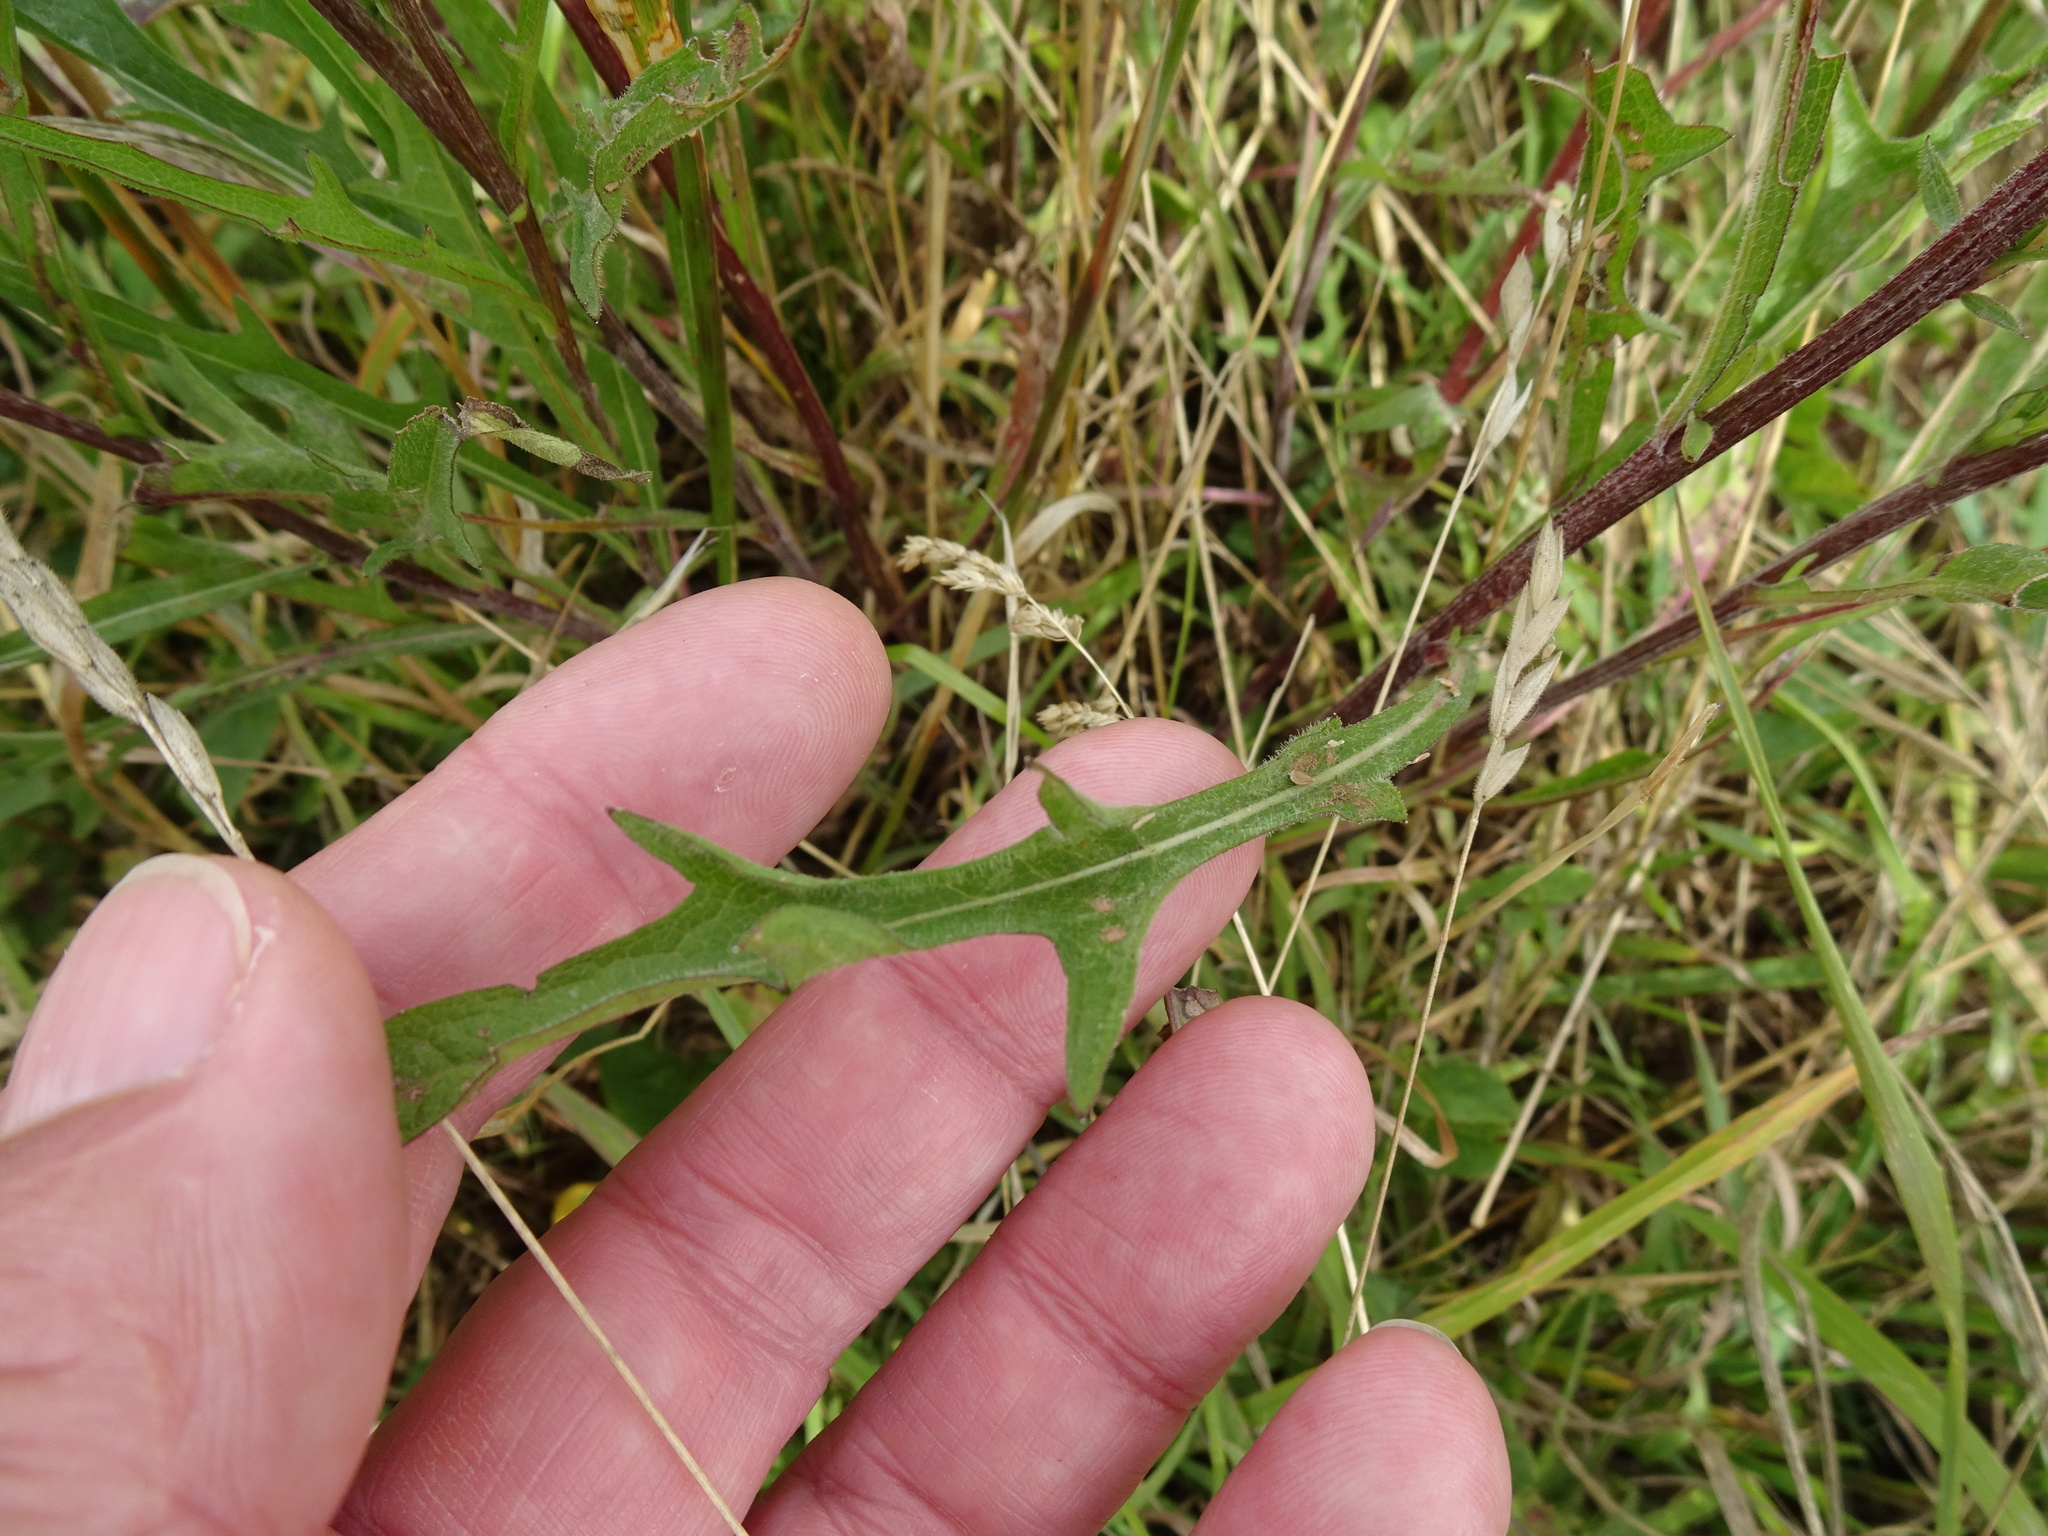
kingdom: Plantae
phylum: Tracheophyta
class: Magnoliopsida
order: Asterales
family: Asteraceae
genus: Centaurea
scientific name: Centaurea nigra
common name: Lesser knapweed
